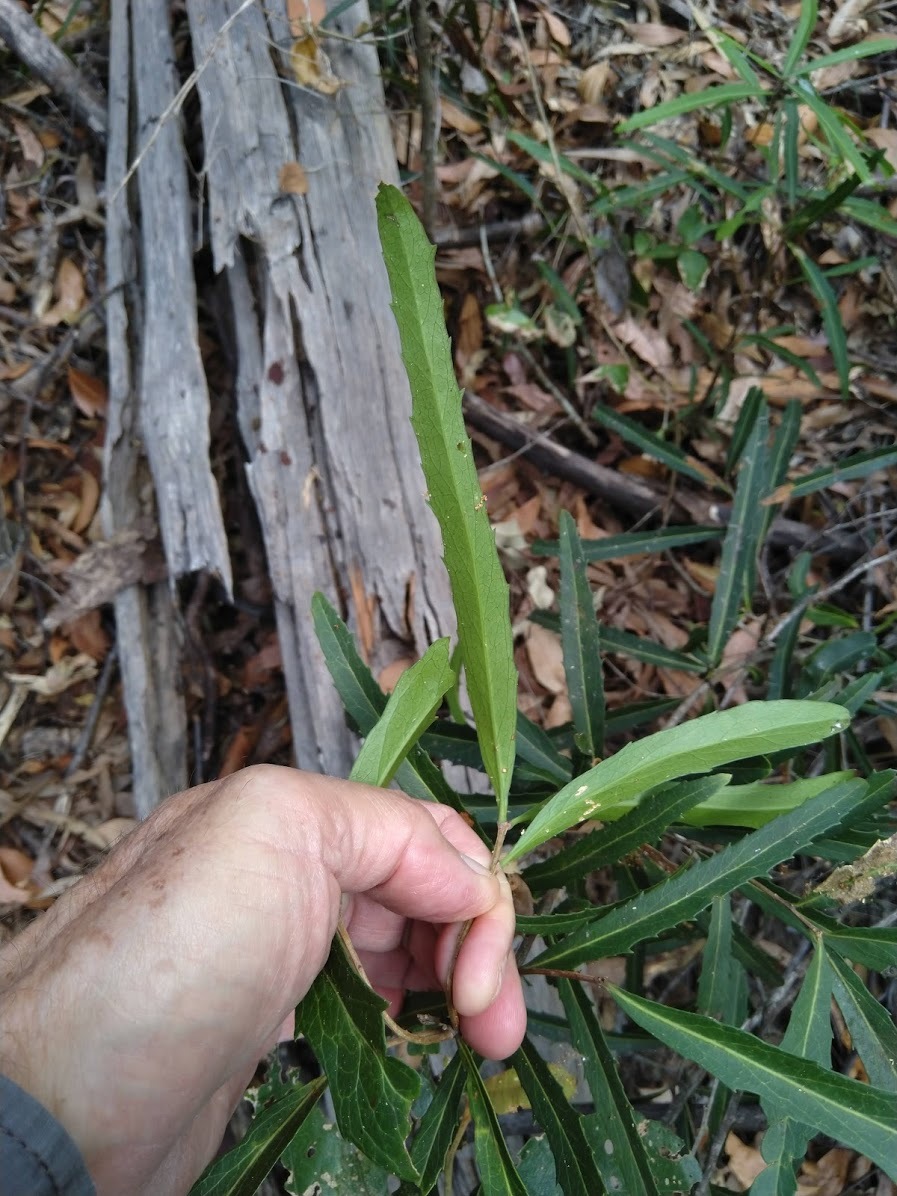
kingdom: Plantae
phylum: Tracheophyta
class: Magnoliopsida
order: Celastrales
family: Celastraceae
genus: Denhamia
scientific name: Denhamia pittosporoides
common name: Orange-boxwood
